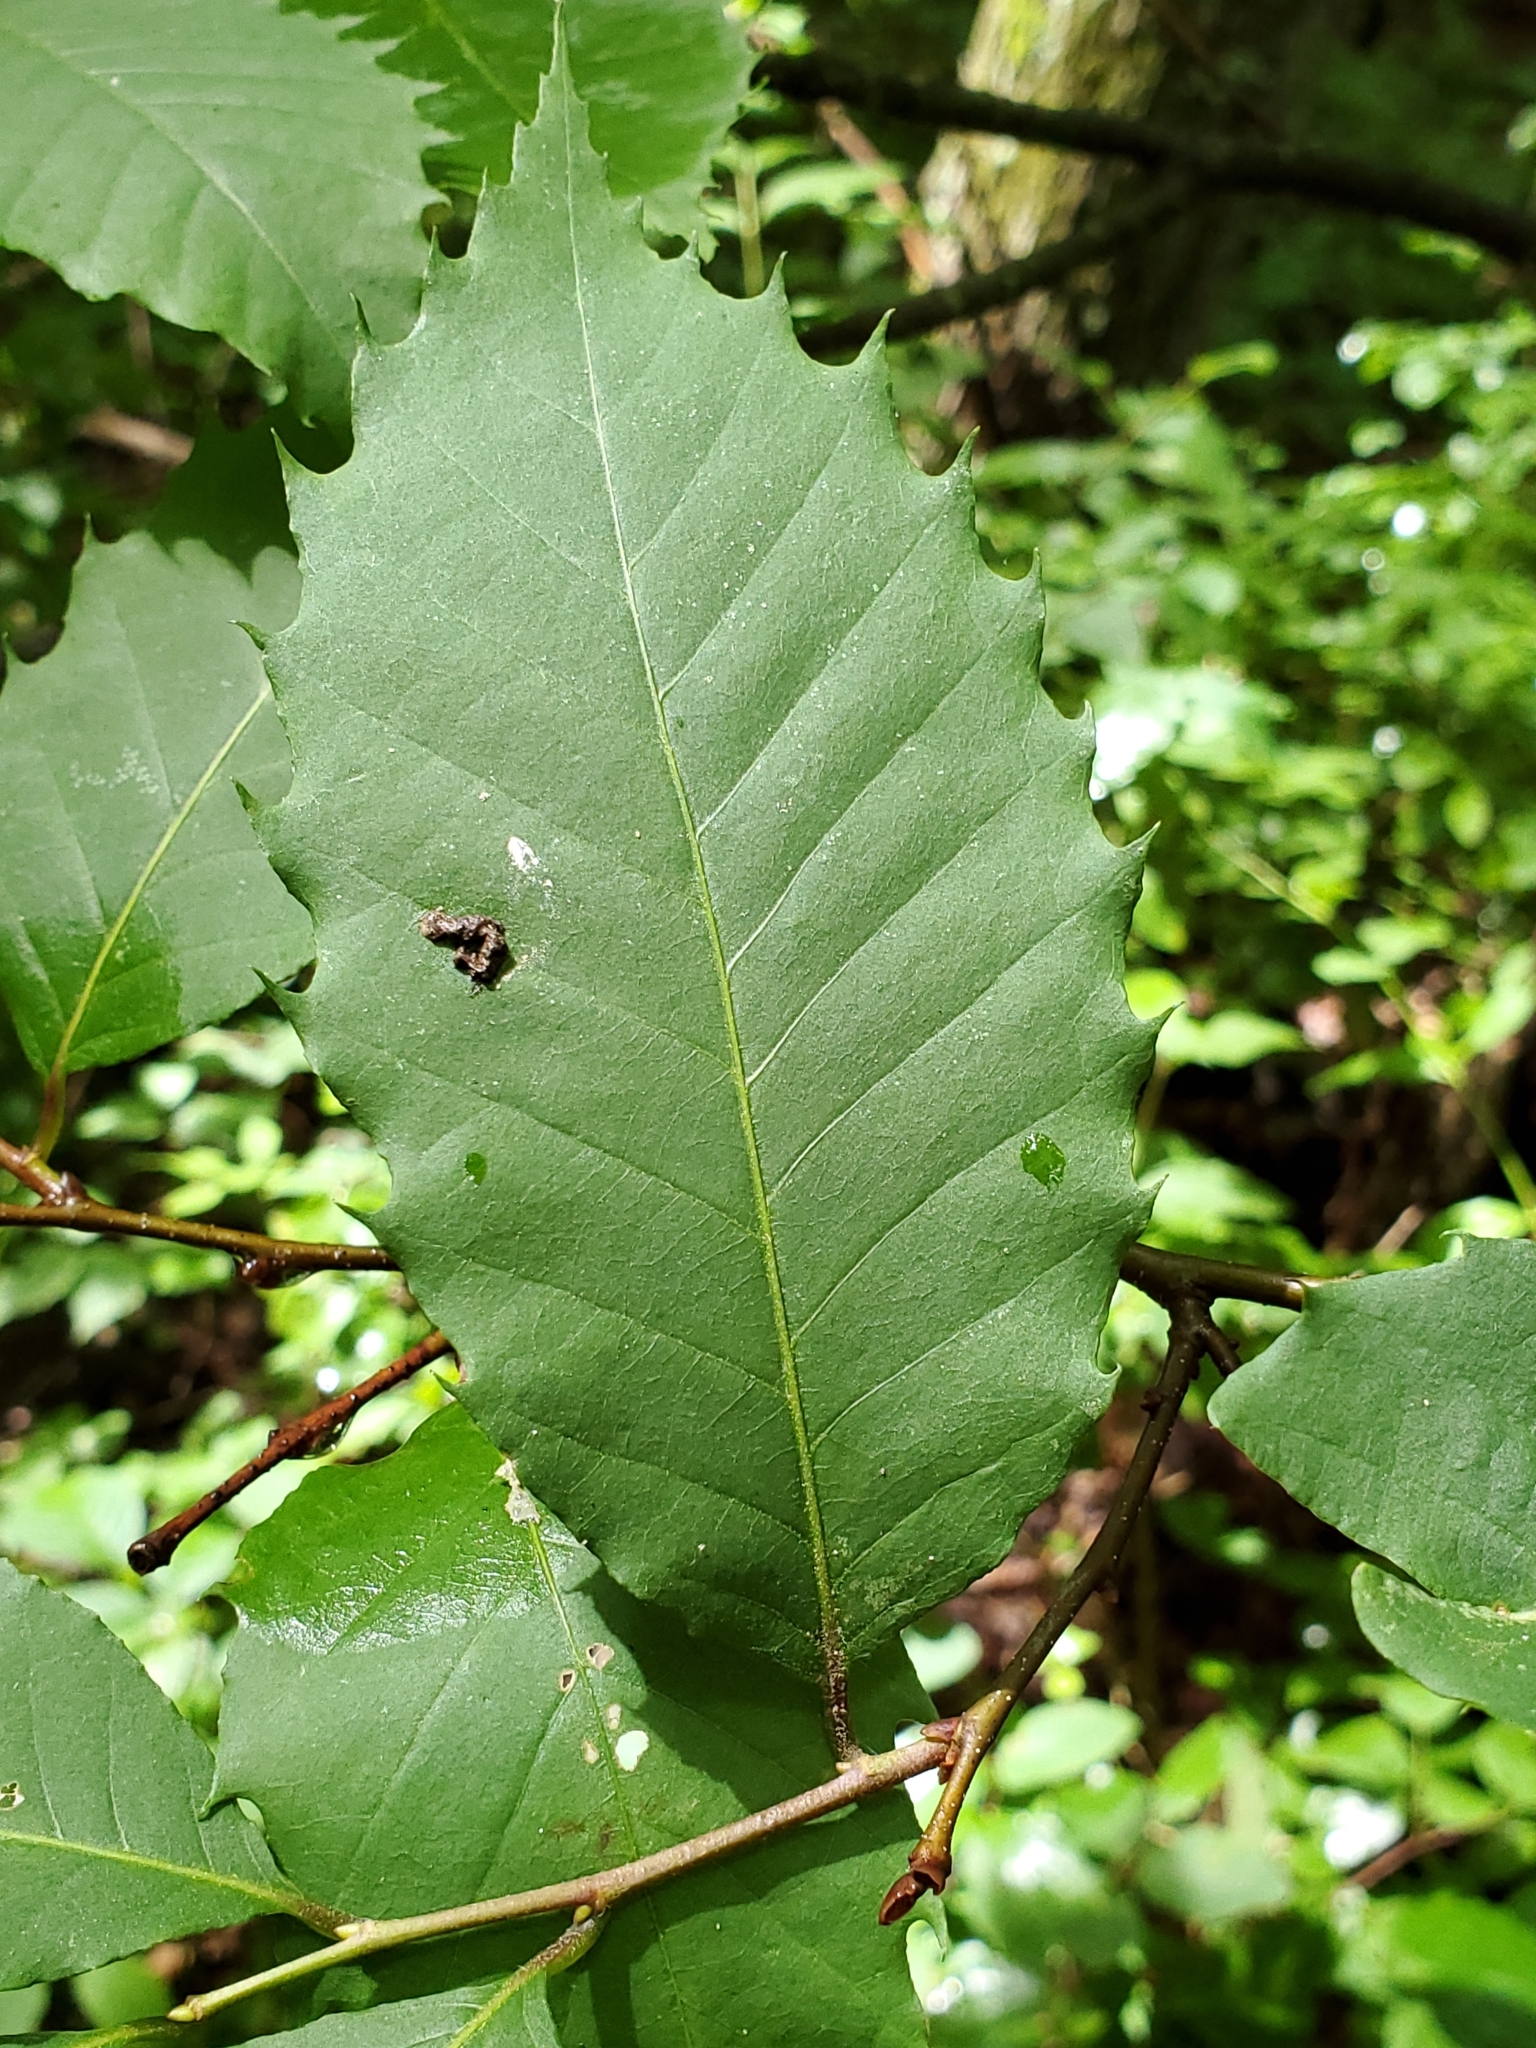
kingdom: Plantae
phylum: Tracheophyta
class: Magnoliopsida
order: Fagales
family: Fagaceae
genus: Castanea
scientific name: Castanea dentata
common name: American chestnut
